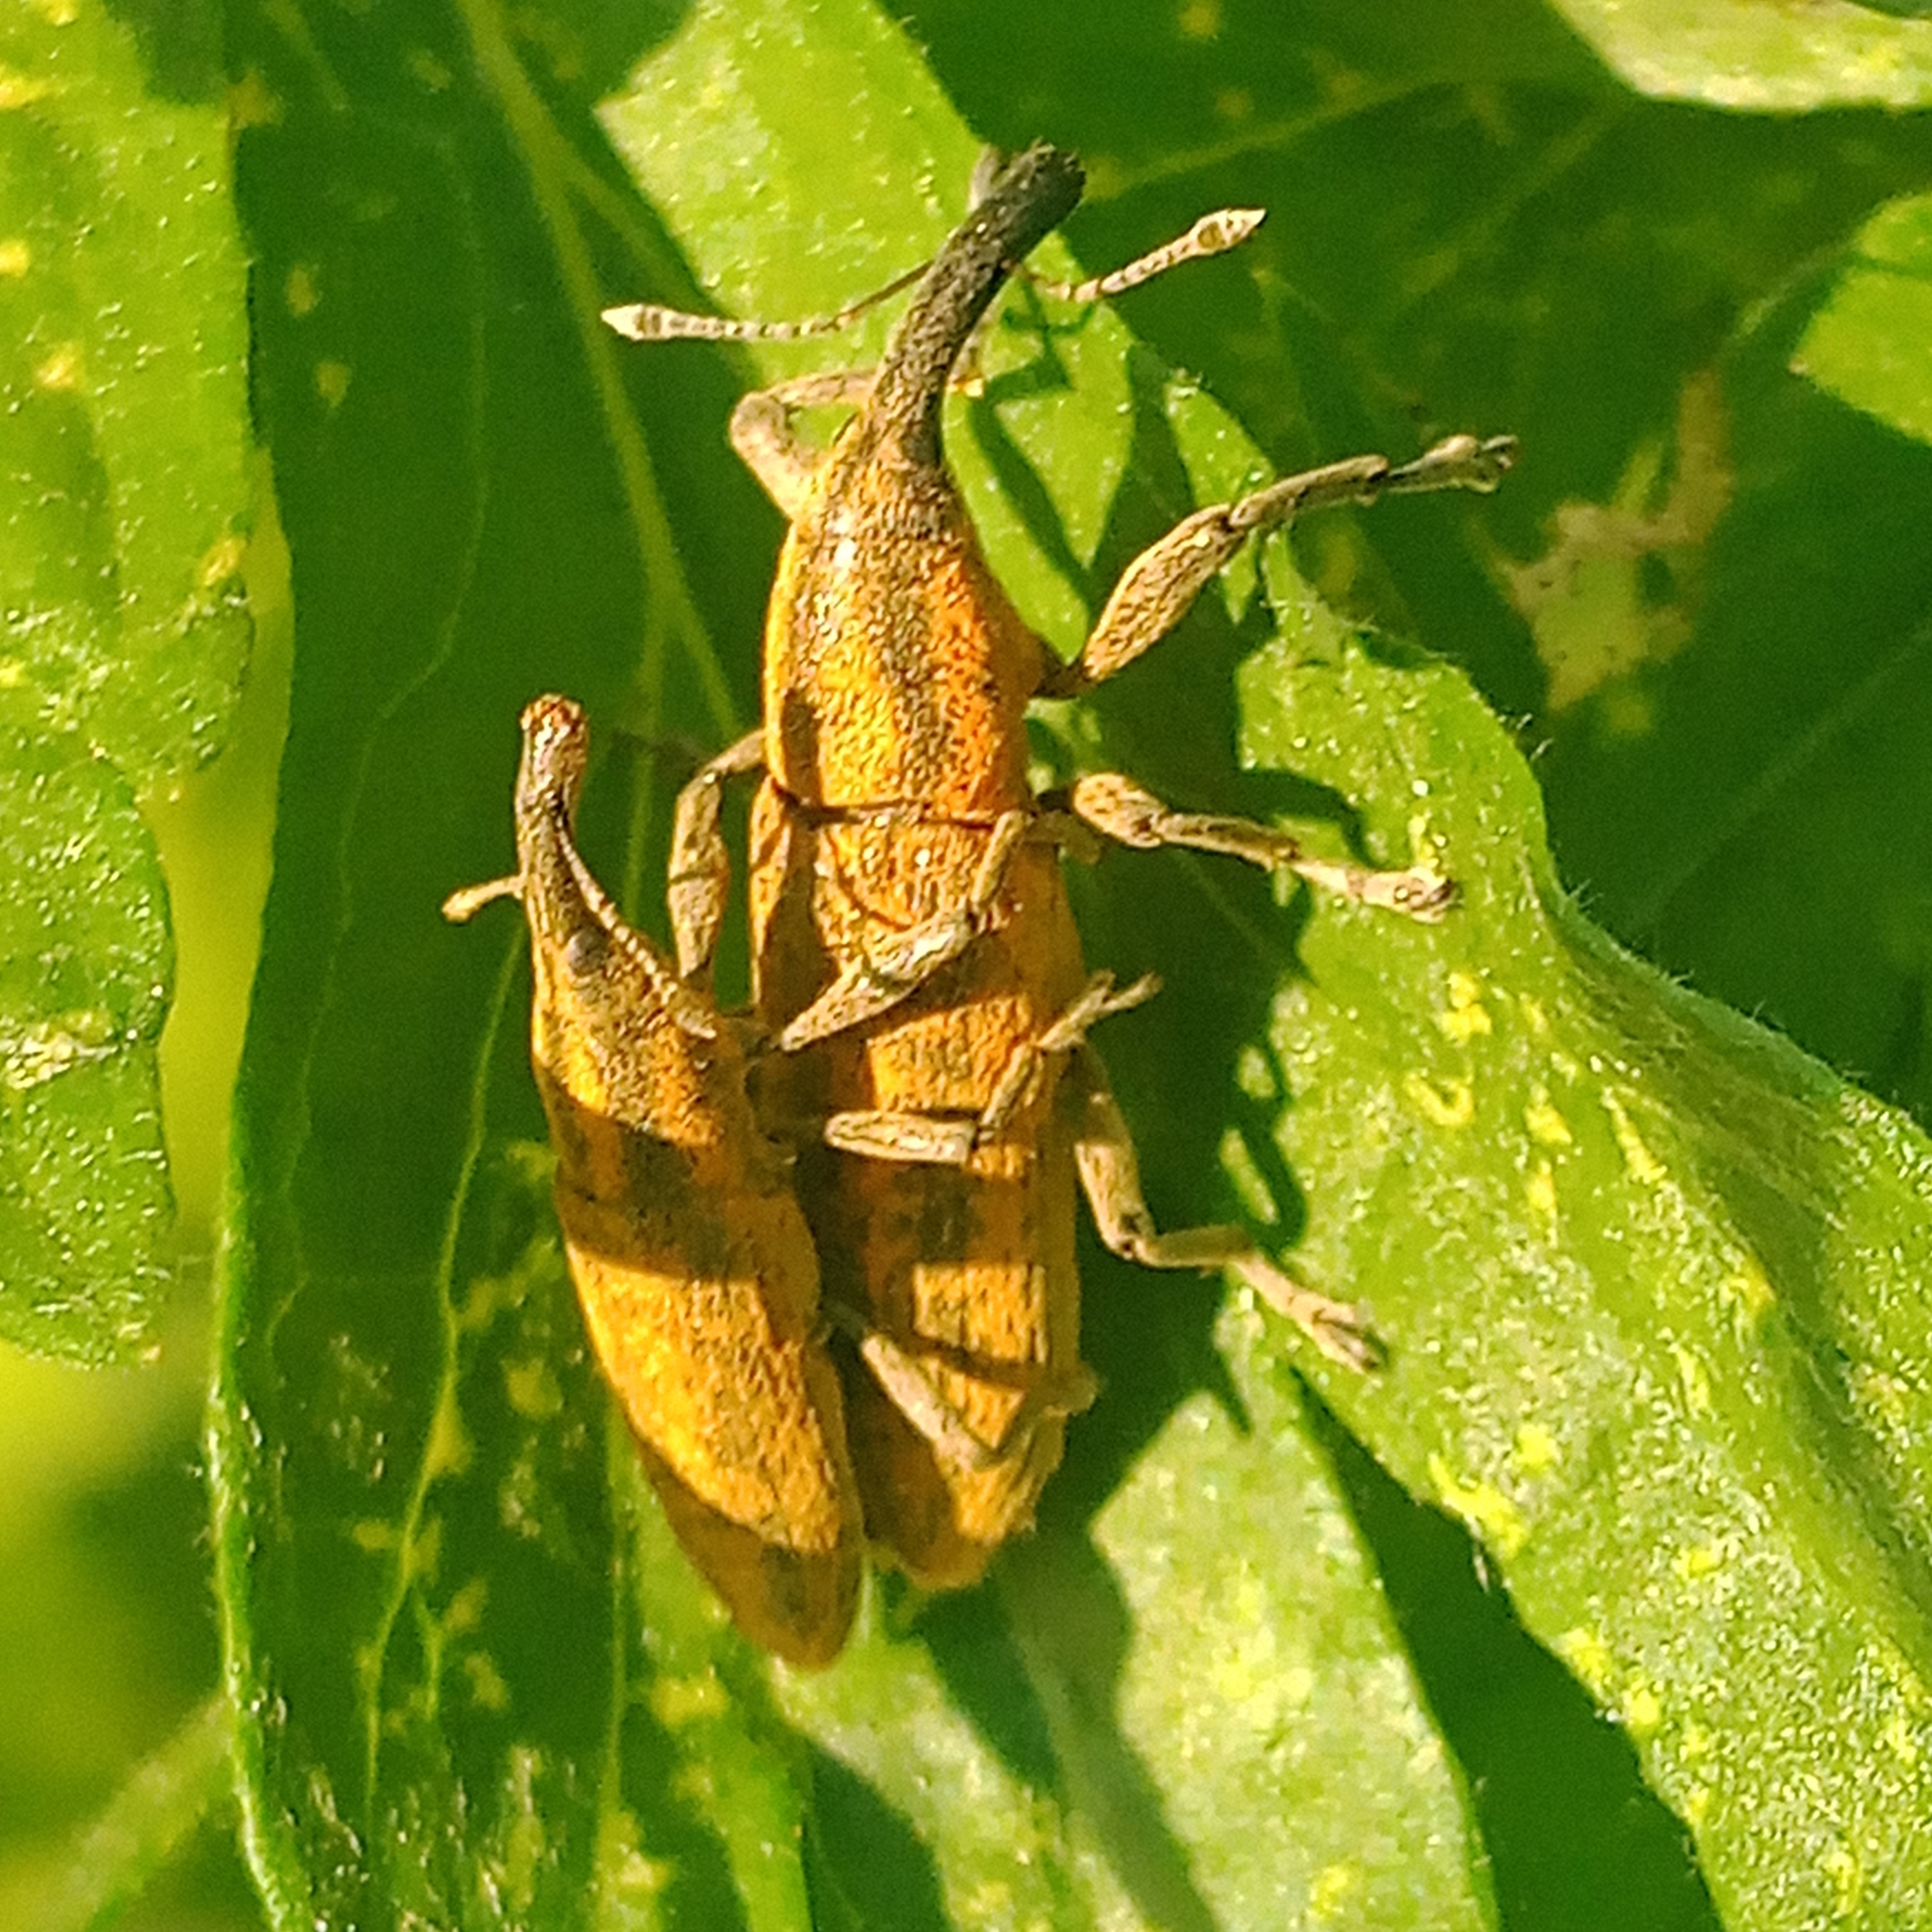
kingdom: Animalia
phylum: Arthropoda
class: Insecta
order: Coleoptera
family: Curculionidae
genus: Lixus
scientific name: Lixus fasciculatus
